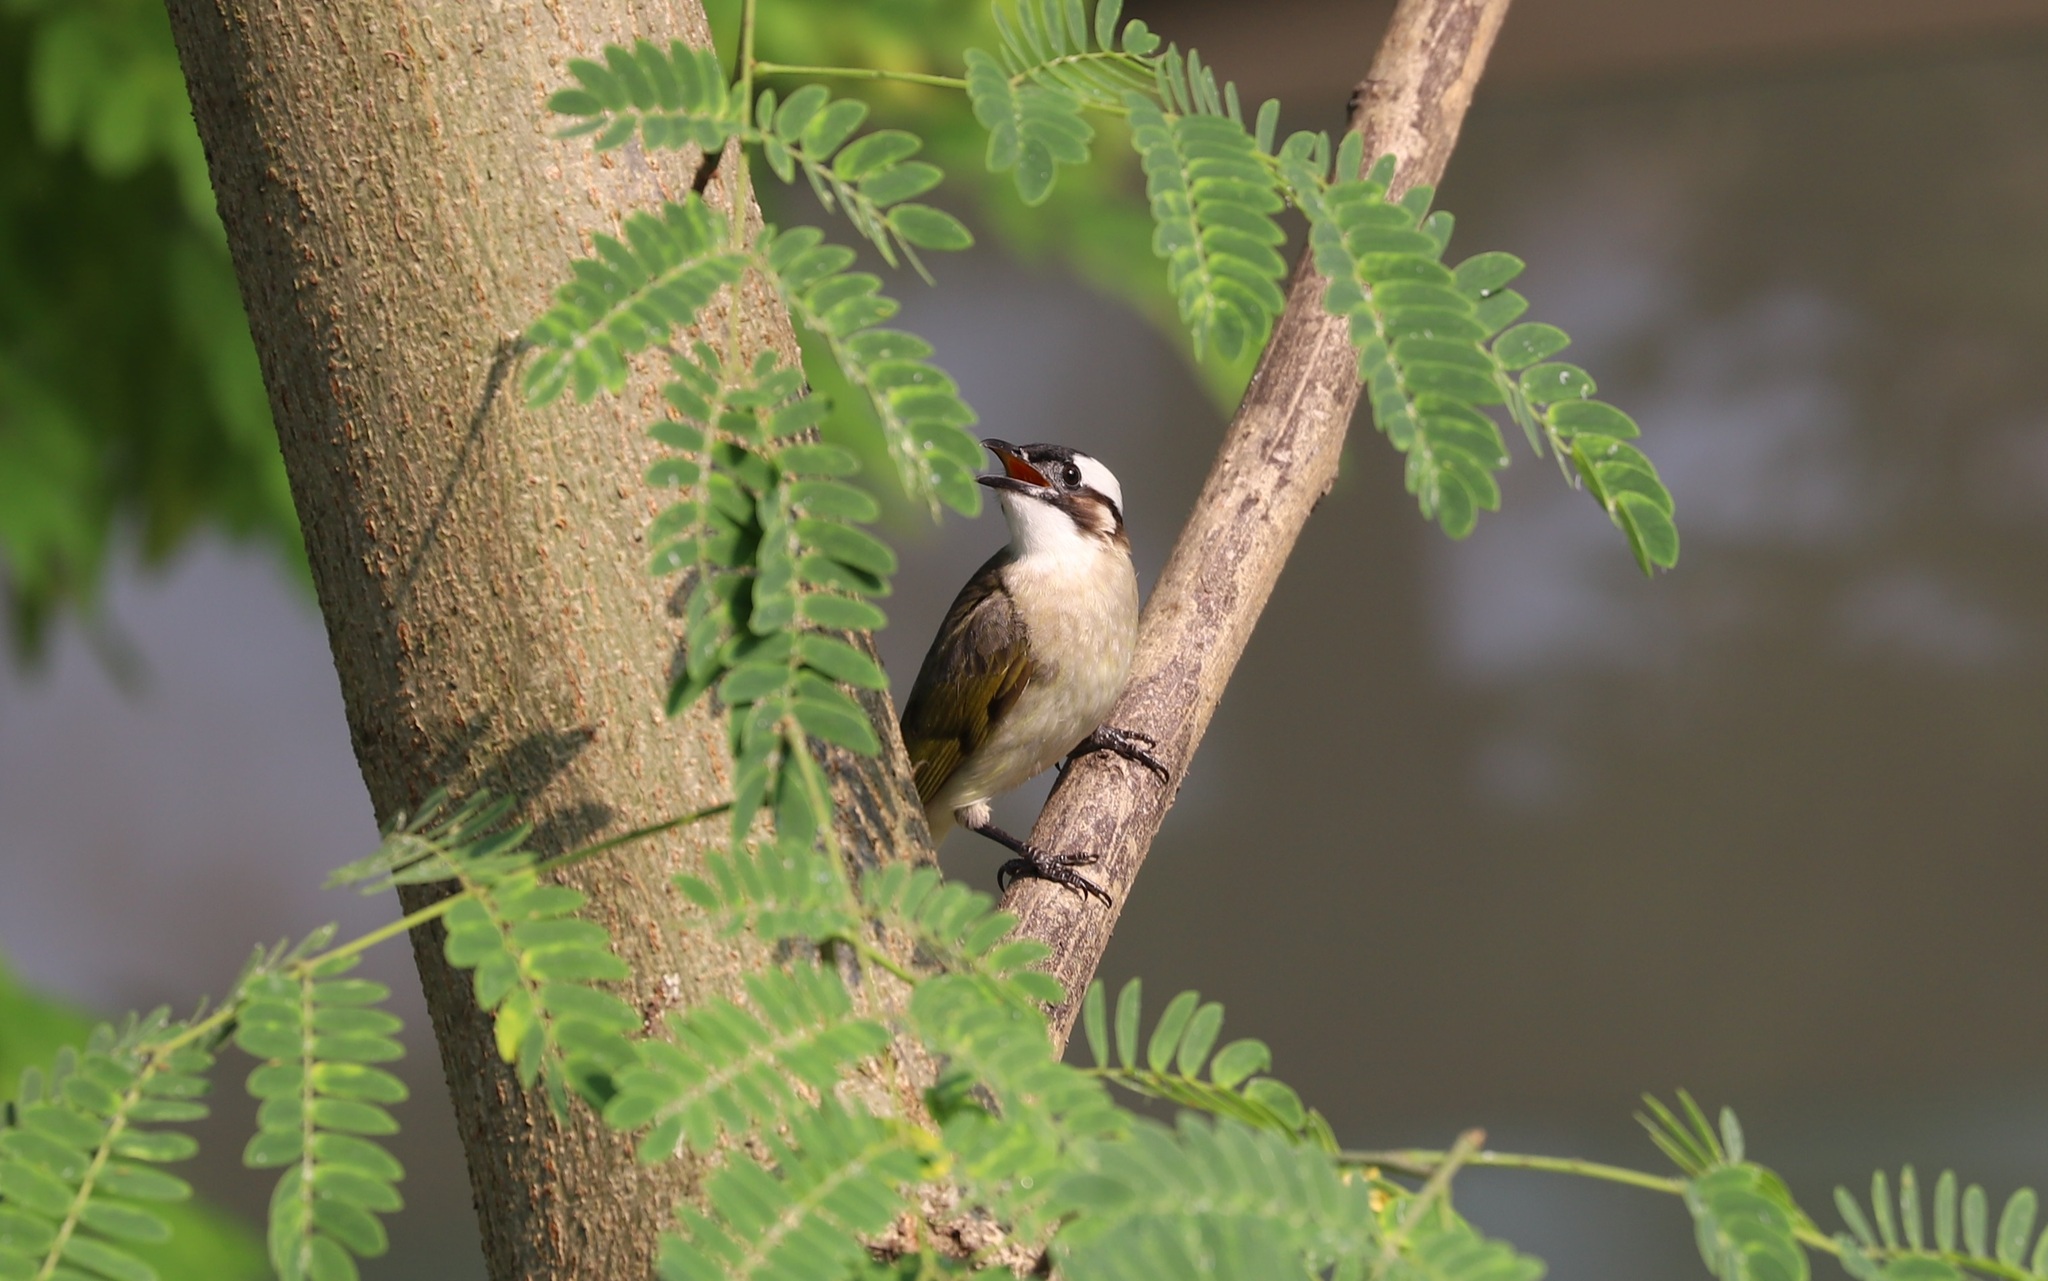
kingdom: Animalia
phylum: Chordata
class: Aves
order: Passeriformes
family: Pycnonotidae
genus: Pycnonotus
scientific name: Pycnonotus sinensis
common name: Light-vented bulbul
